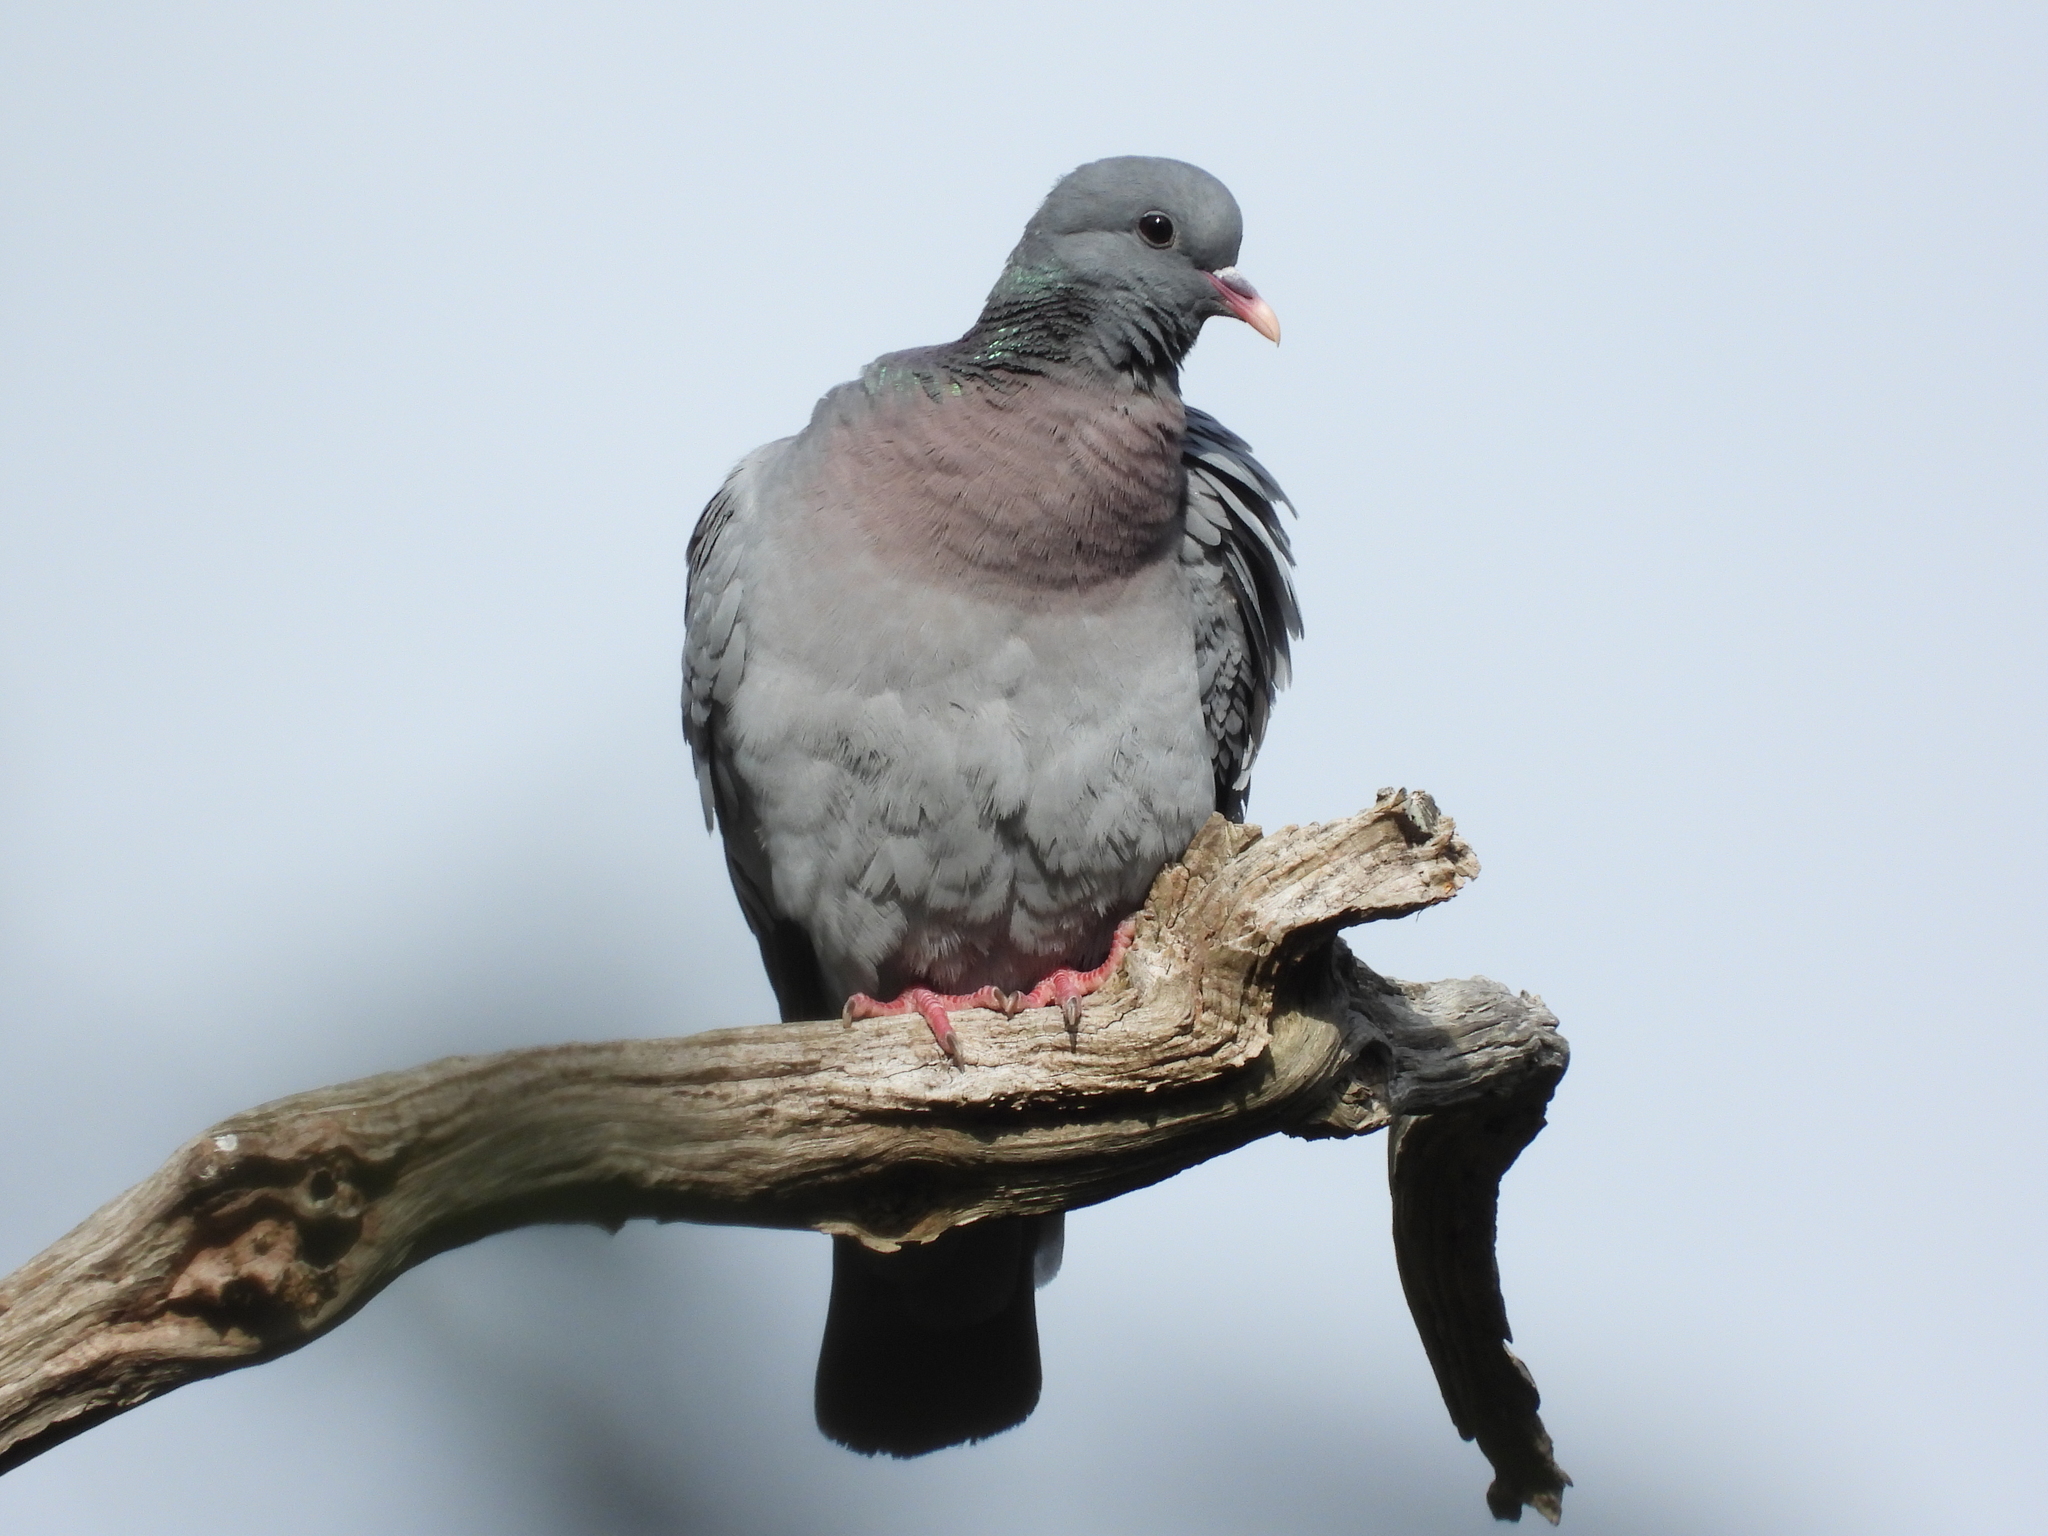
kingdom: Animalia
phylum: Chordata
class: Aves
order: Columbiformes
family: Columbidae
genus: Columba
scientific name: Columba oenas
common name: Stock dove
